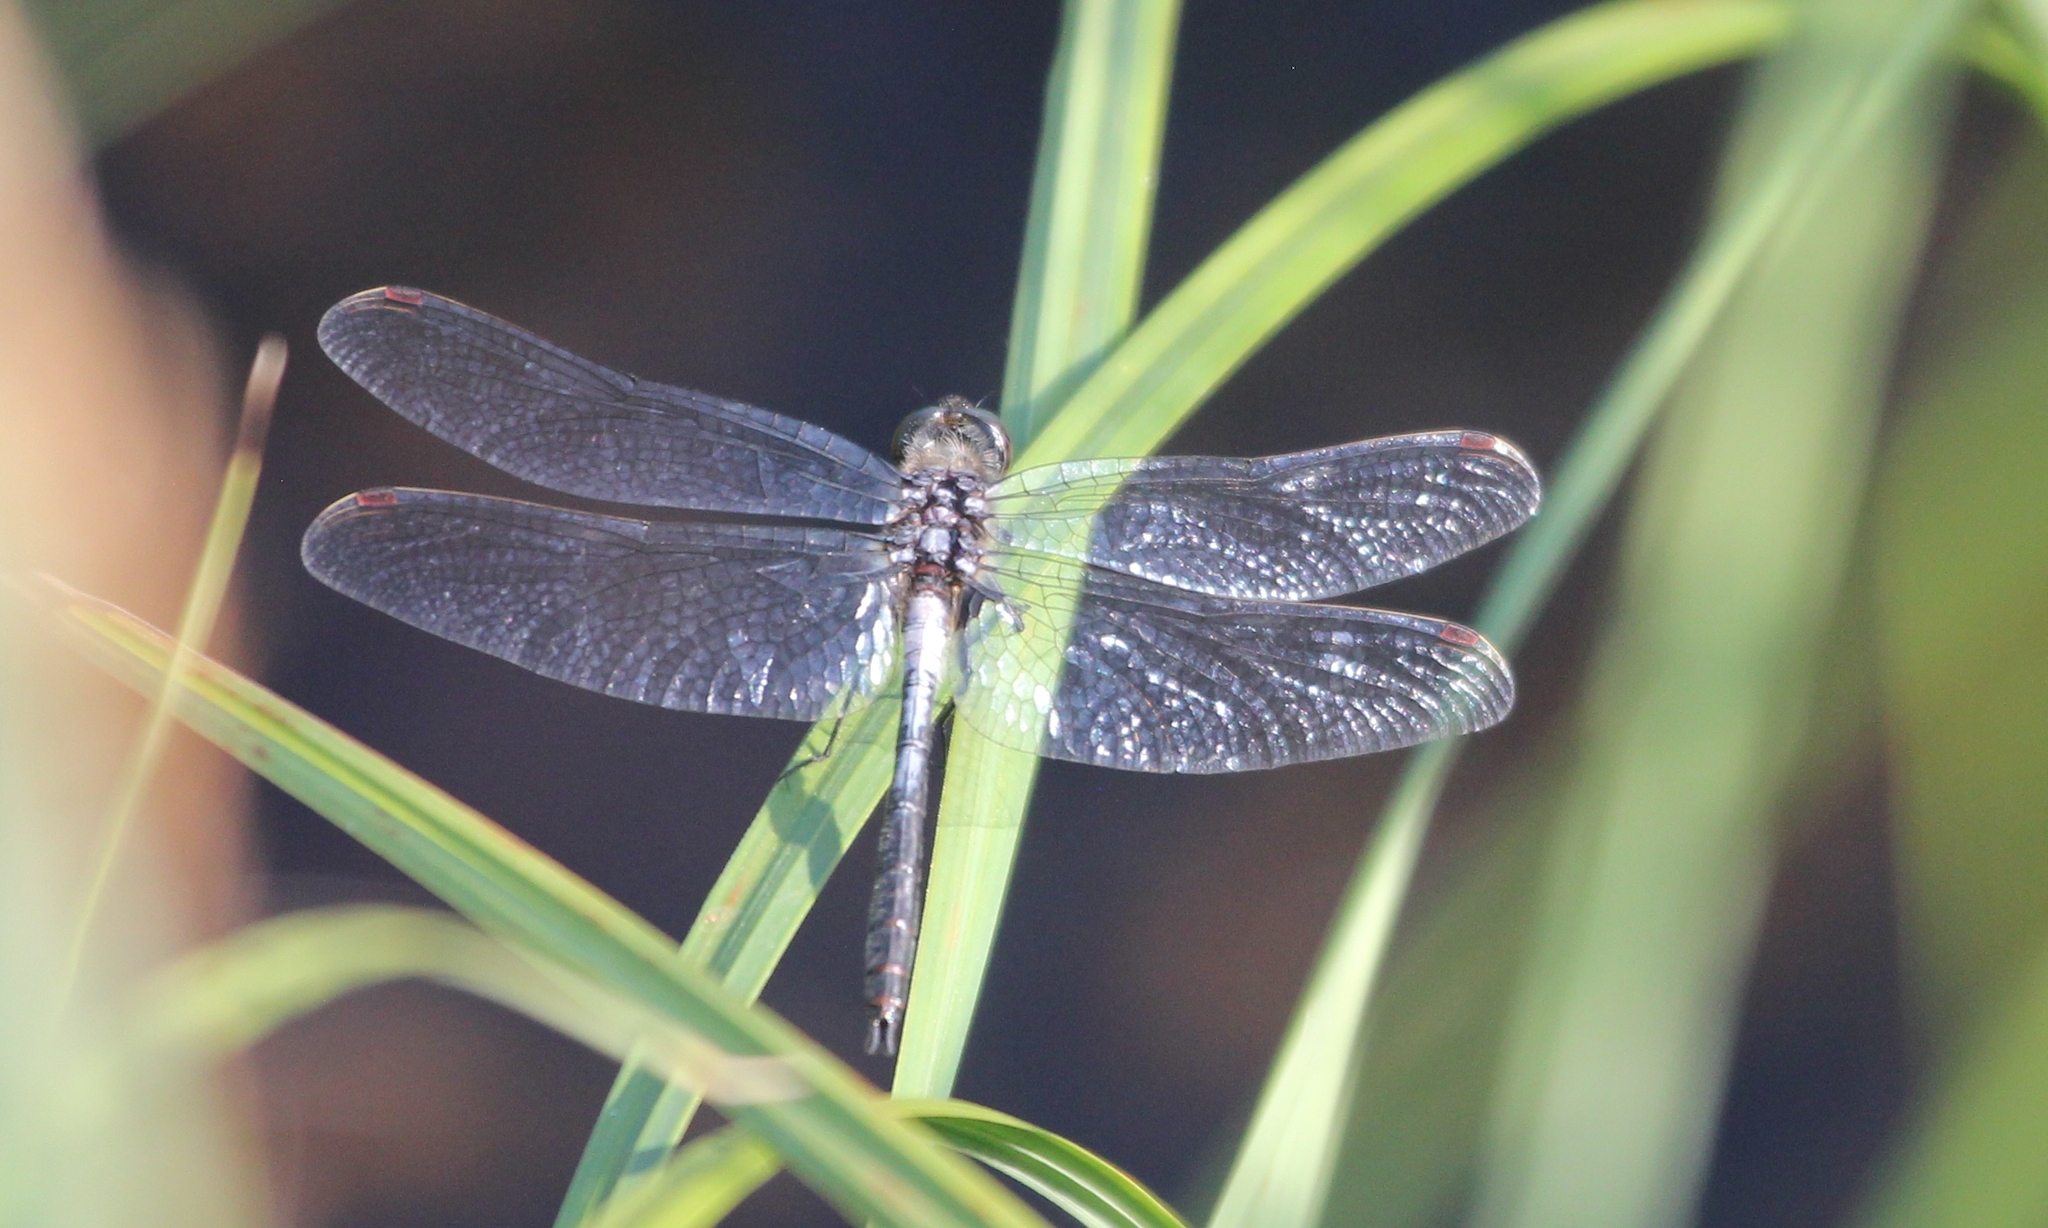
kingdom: Animalia
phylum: Arthropoda
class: Insecta
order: Odonata
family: Libellulidae
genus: Leucorrhinia
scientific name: Leucorrhinia proxima
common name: Belted whiteface
